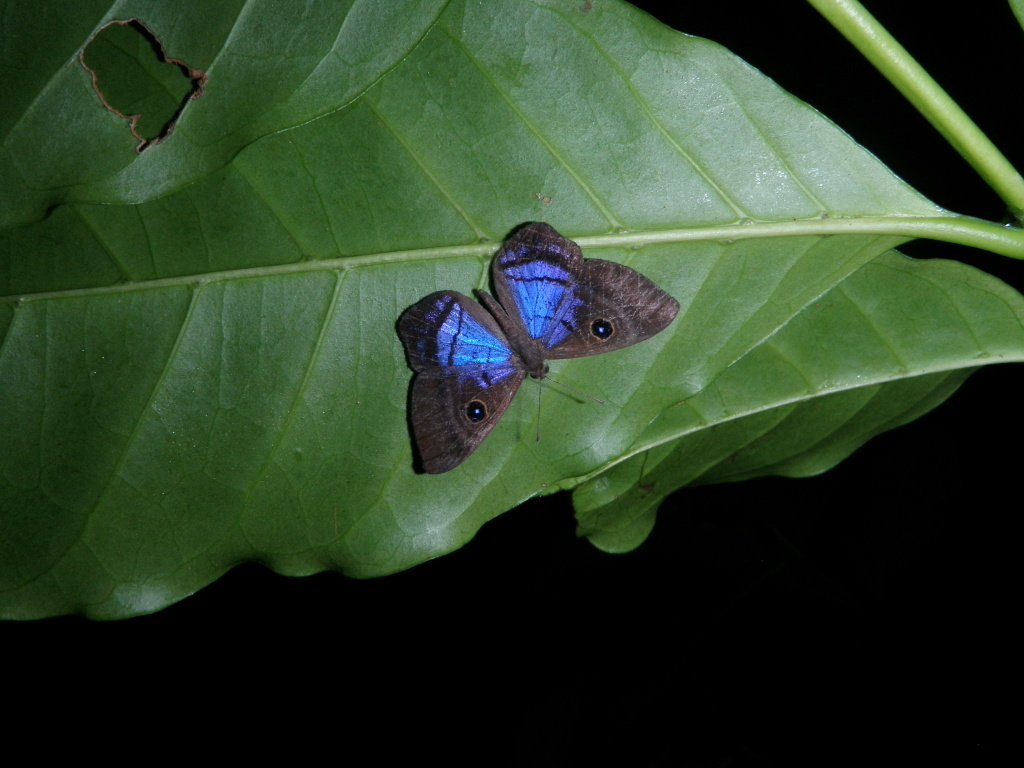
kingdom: Animalia
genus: Mesosemia
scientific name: Mesosemia lamachus
